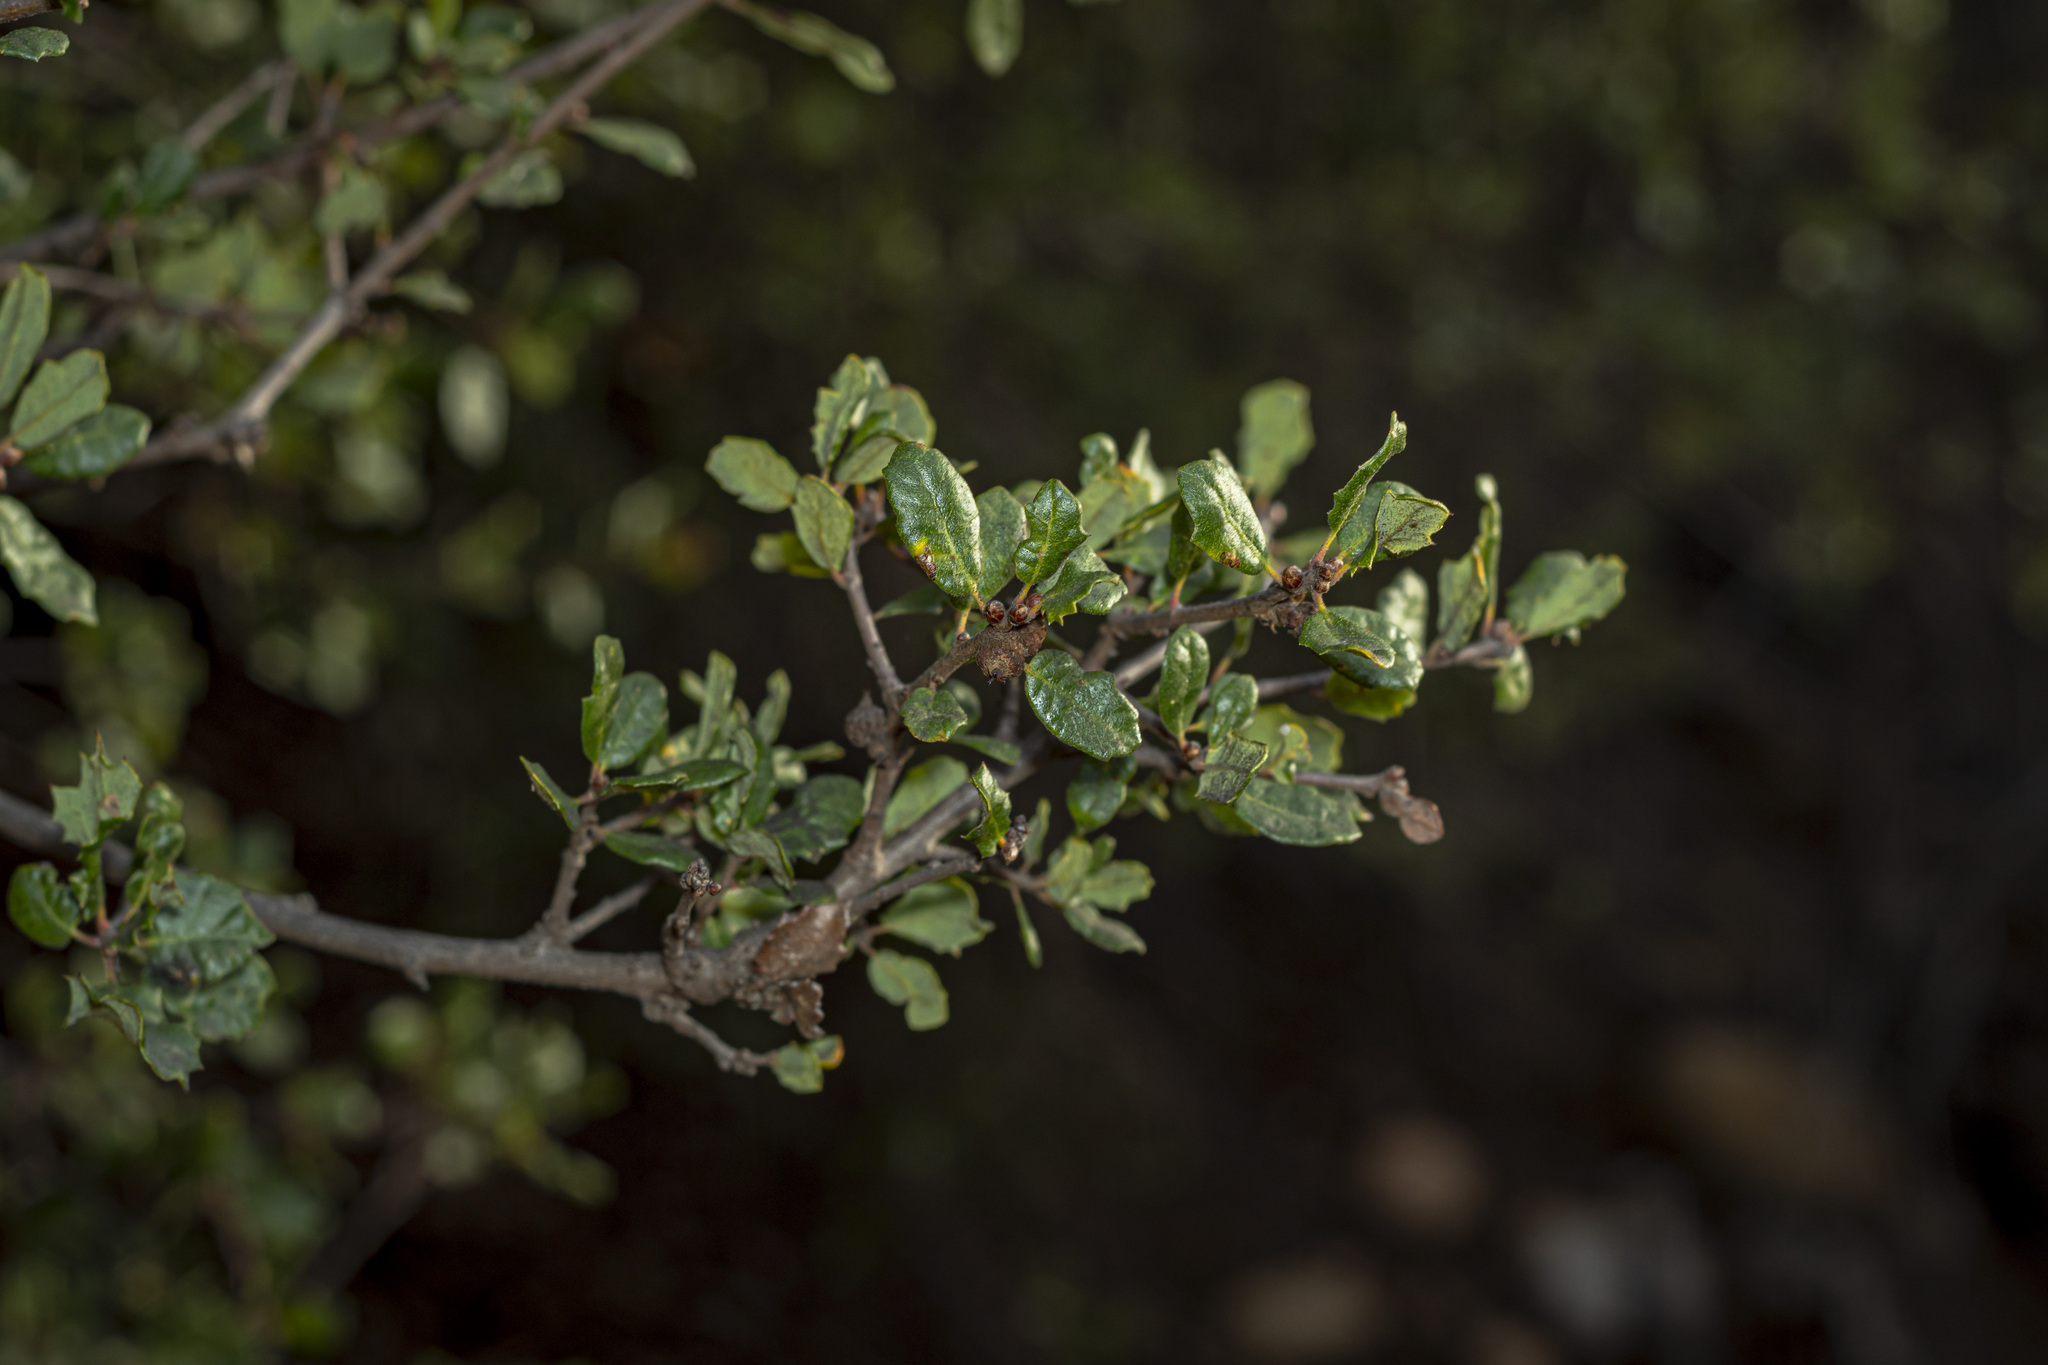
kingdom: Plantae
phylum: Tracheophyta
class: Magnoliopsida
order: Fagales
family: Fagaceae
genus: Quercus
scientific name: Quercus dumosa
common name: Coastal sage scrub oak
